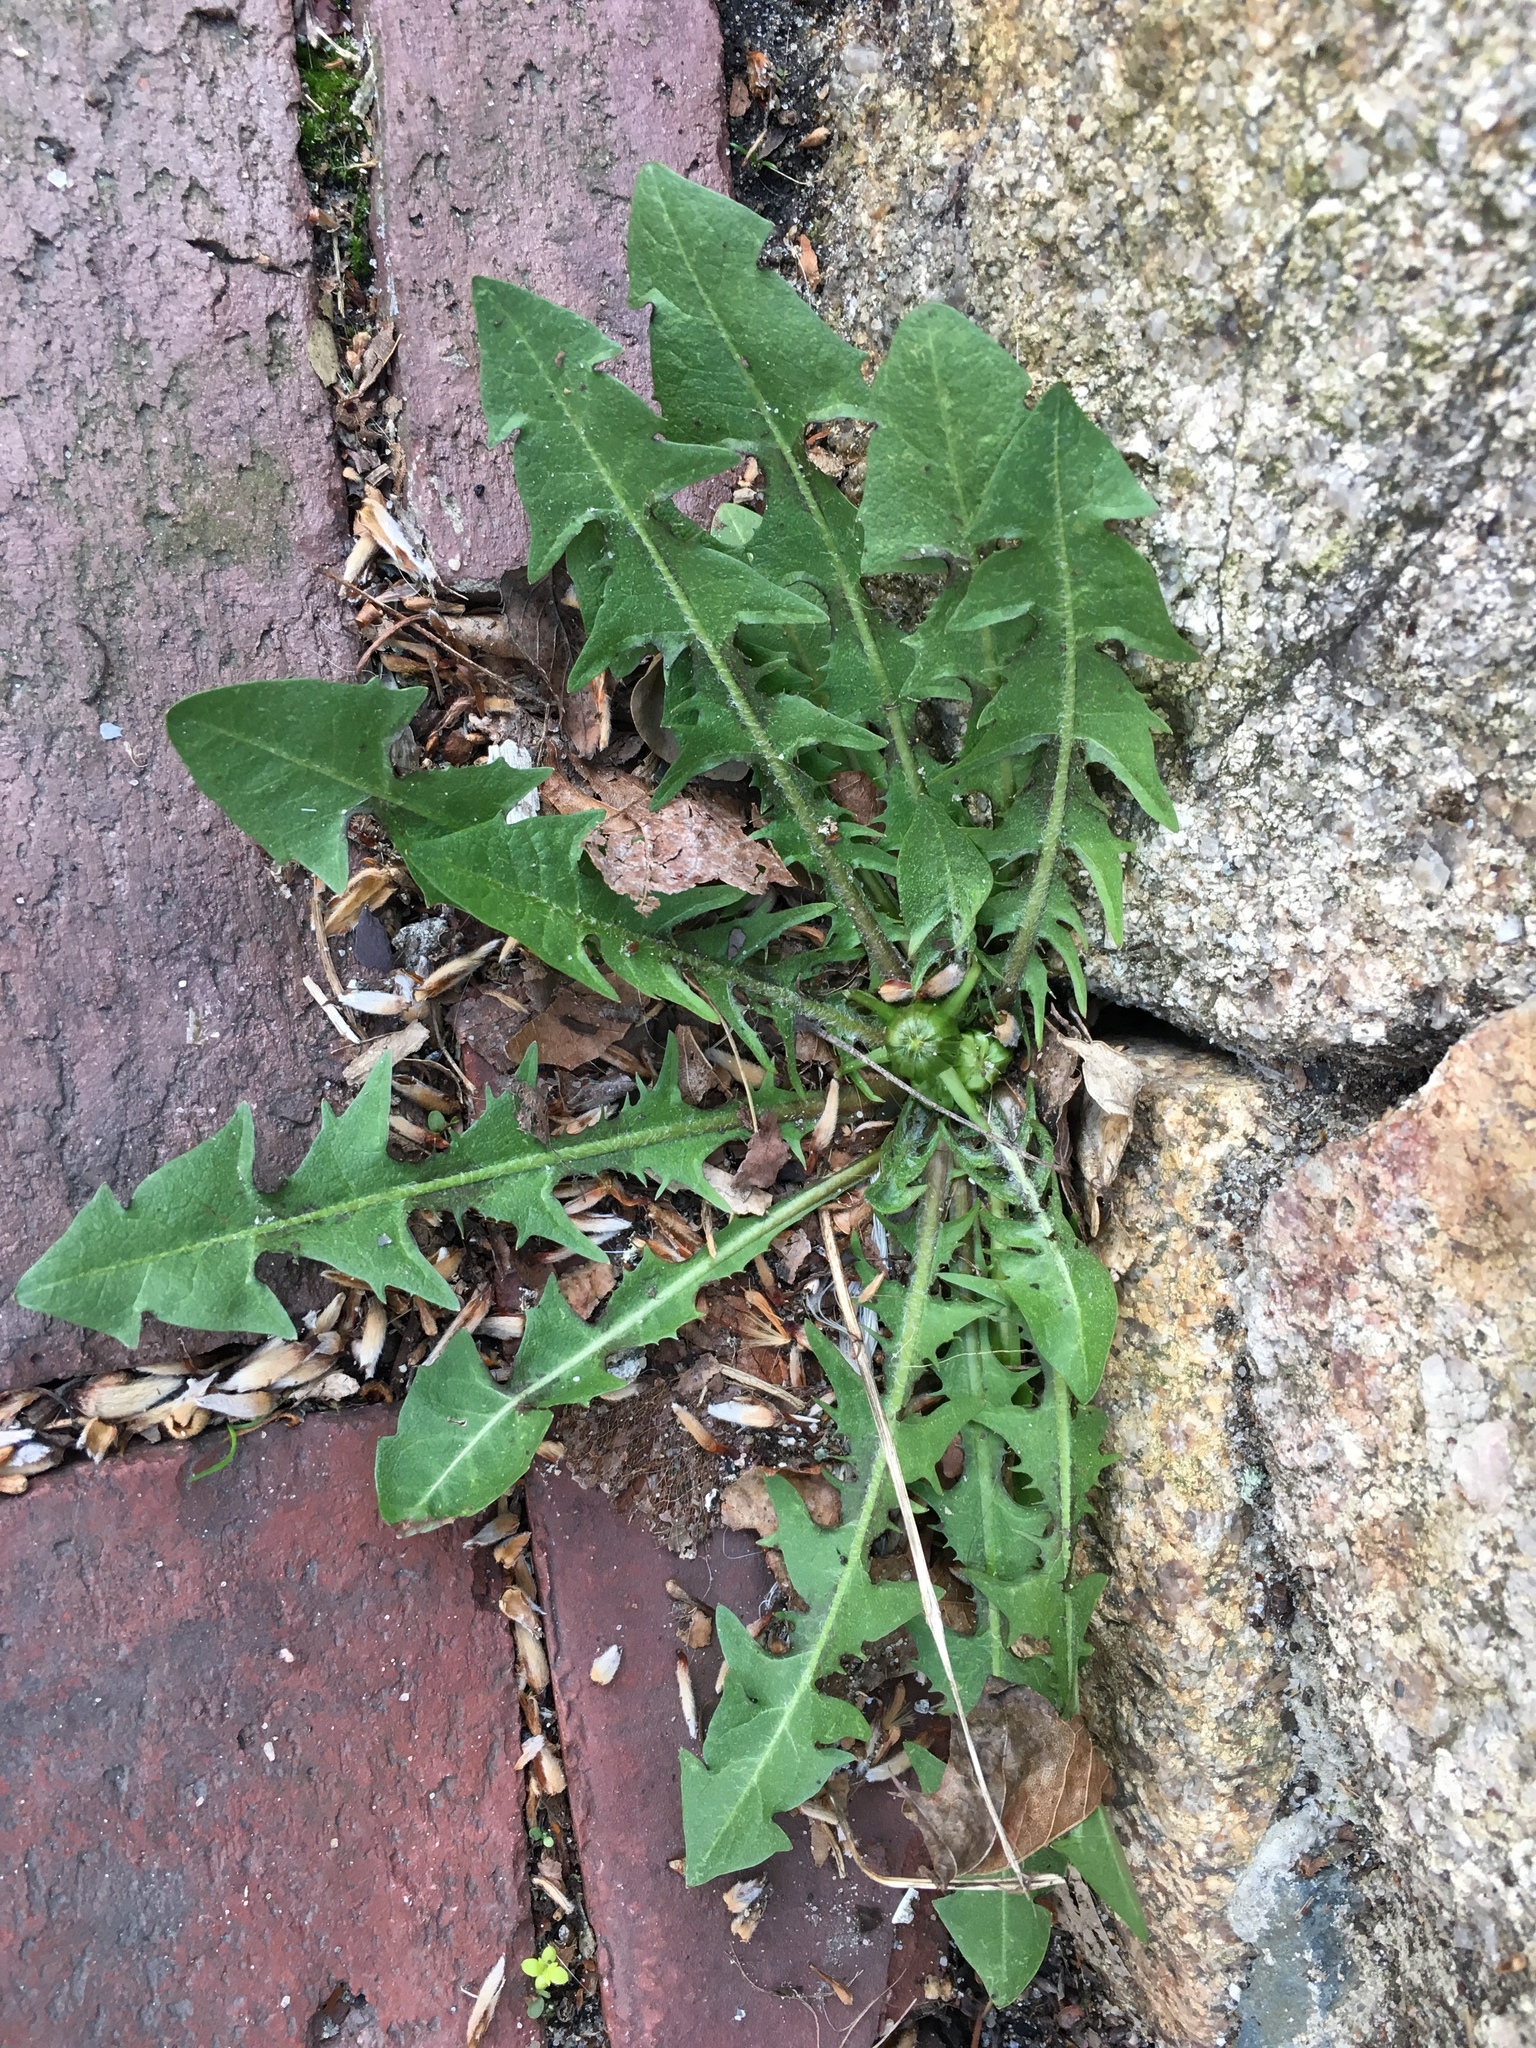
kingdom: Plantae
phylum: Tracheophyta
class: Magnoliopsida
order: Asterales
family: Asteraceae
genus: Taraxacum
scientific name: Taraxacum officinale
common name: Common dandelion
